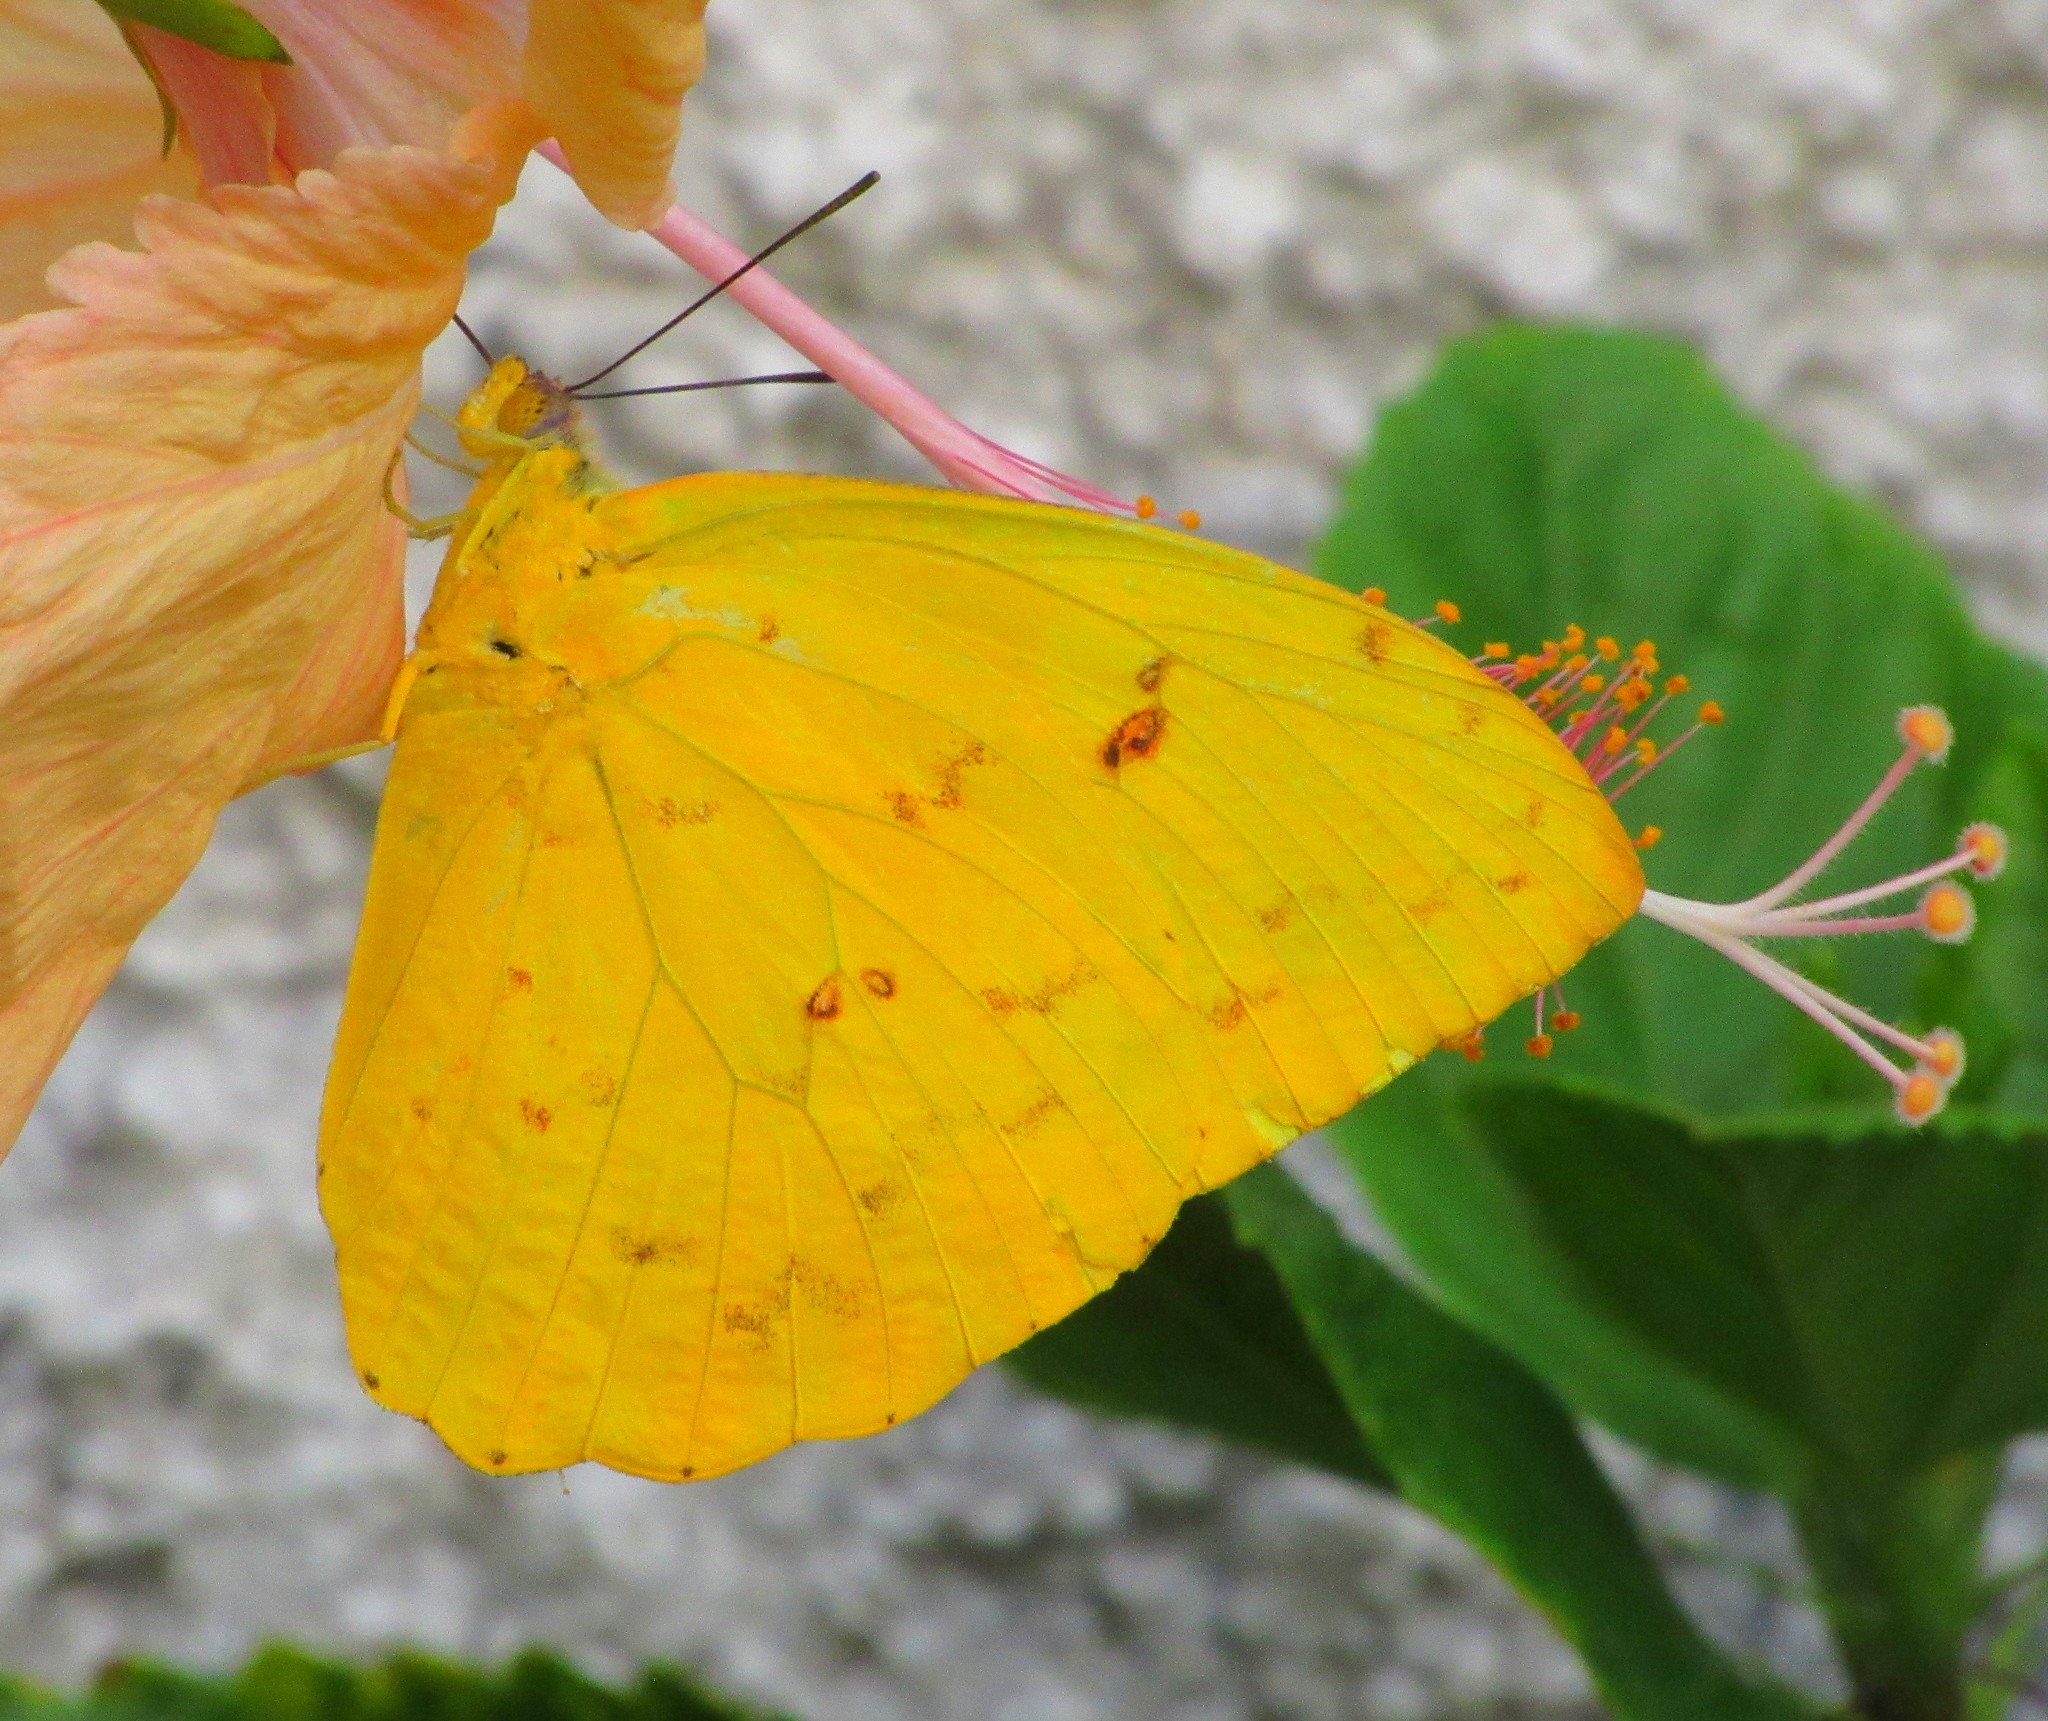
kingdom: Animalia
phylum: Arthropoda
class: Insecta
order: Lepidoptera
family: Pieridae
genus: Phoebis
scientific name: Phoebis philea
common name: Orange-barred giant sulphur
